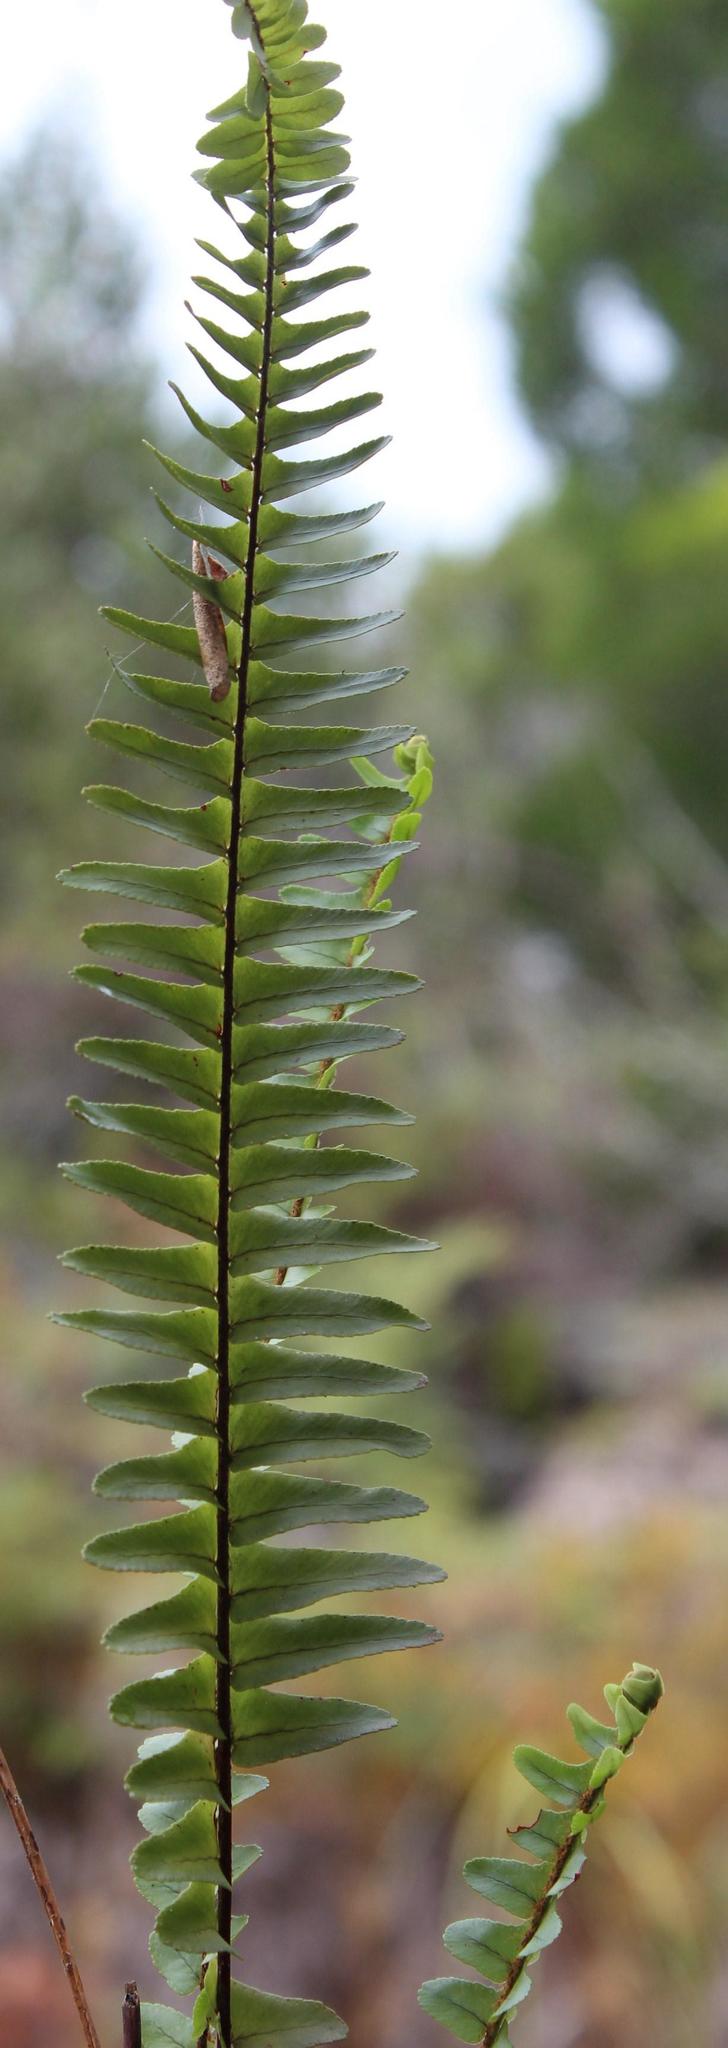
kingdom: Plantae
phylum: Tracheophyta
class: Polypodiopsida
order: Polypodiales
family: Nephrolepidaceae
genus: Nephrolepis
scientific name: Nephrolepis cordifolia
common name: Narrow swordfern
